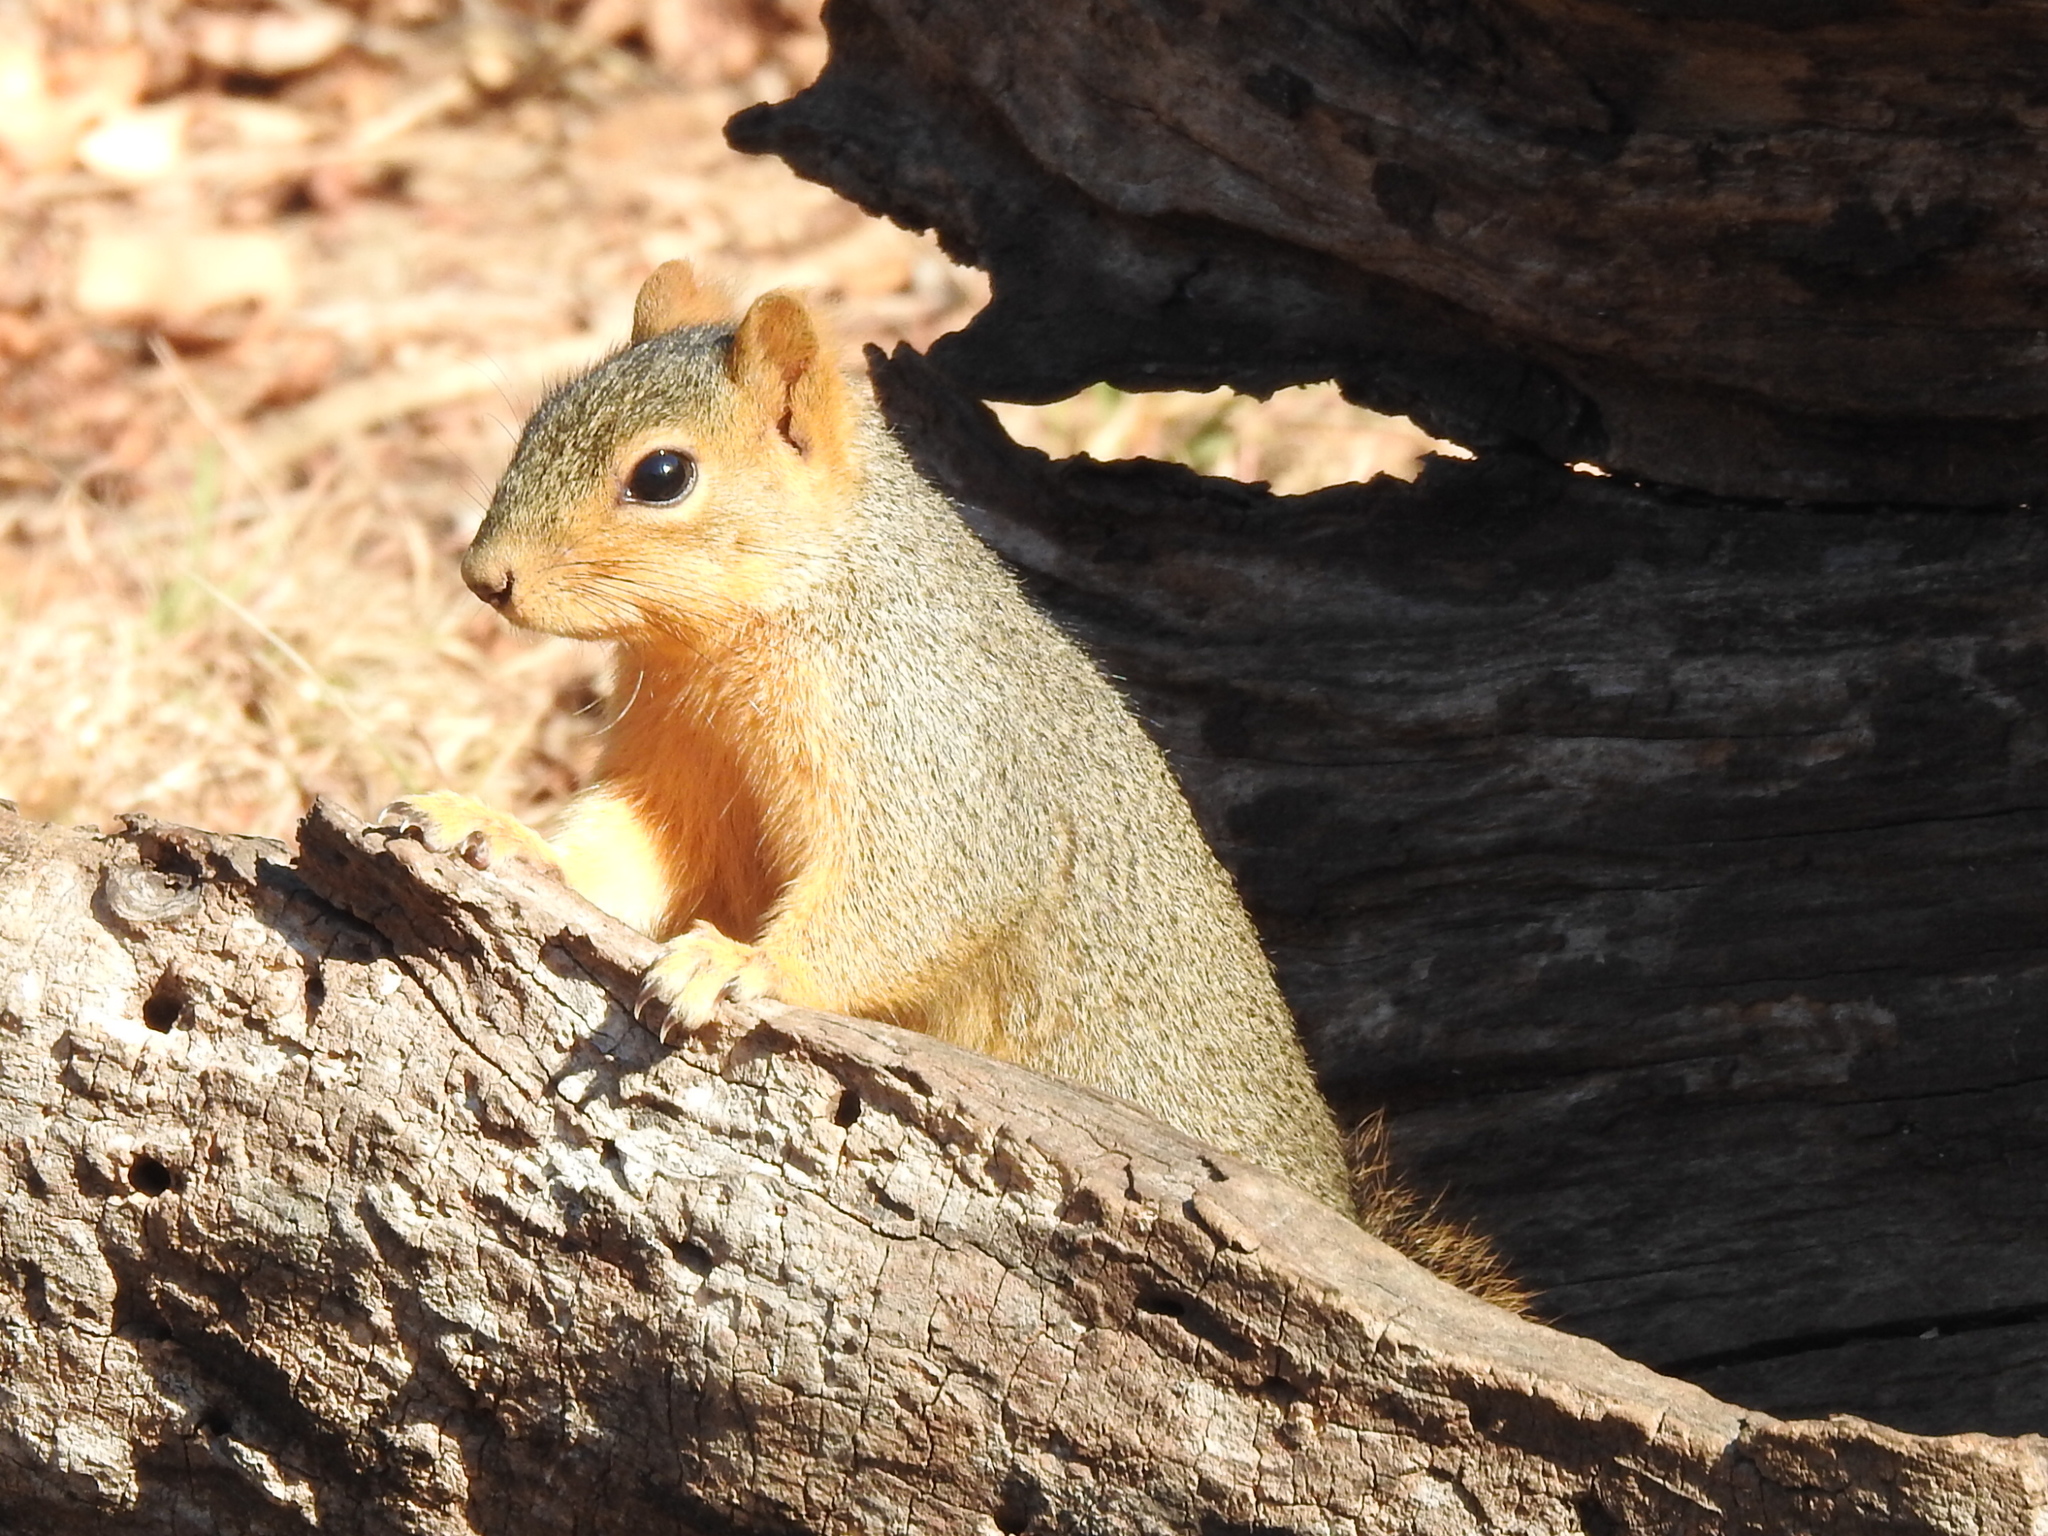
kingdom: Animalia
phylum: Chordata
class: Mammalia
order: Rodentia
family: Sciuridae
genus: Sciurus
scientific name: Sciurus niger
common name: Fox squirrel
